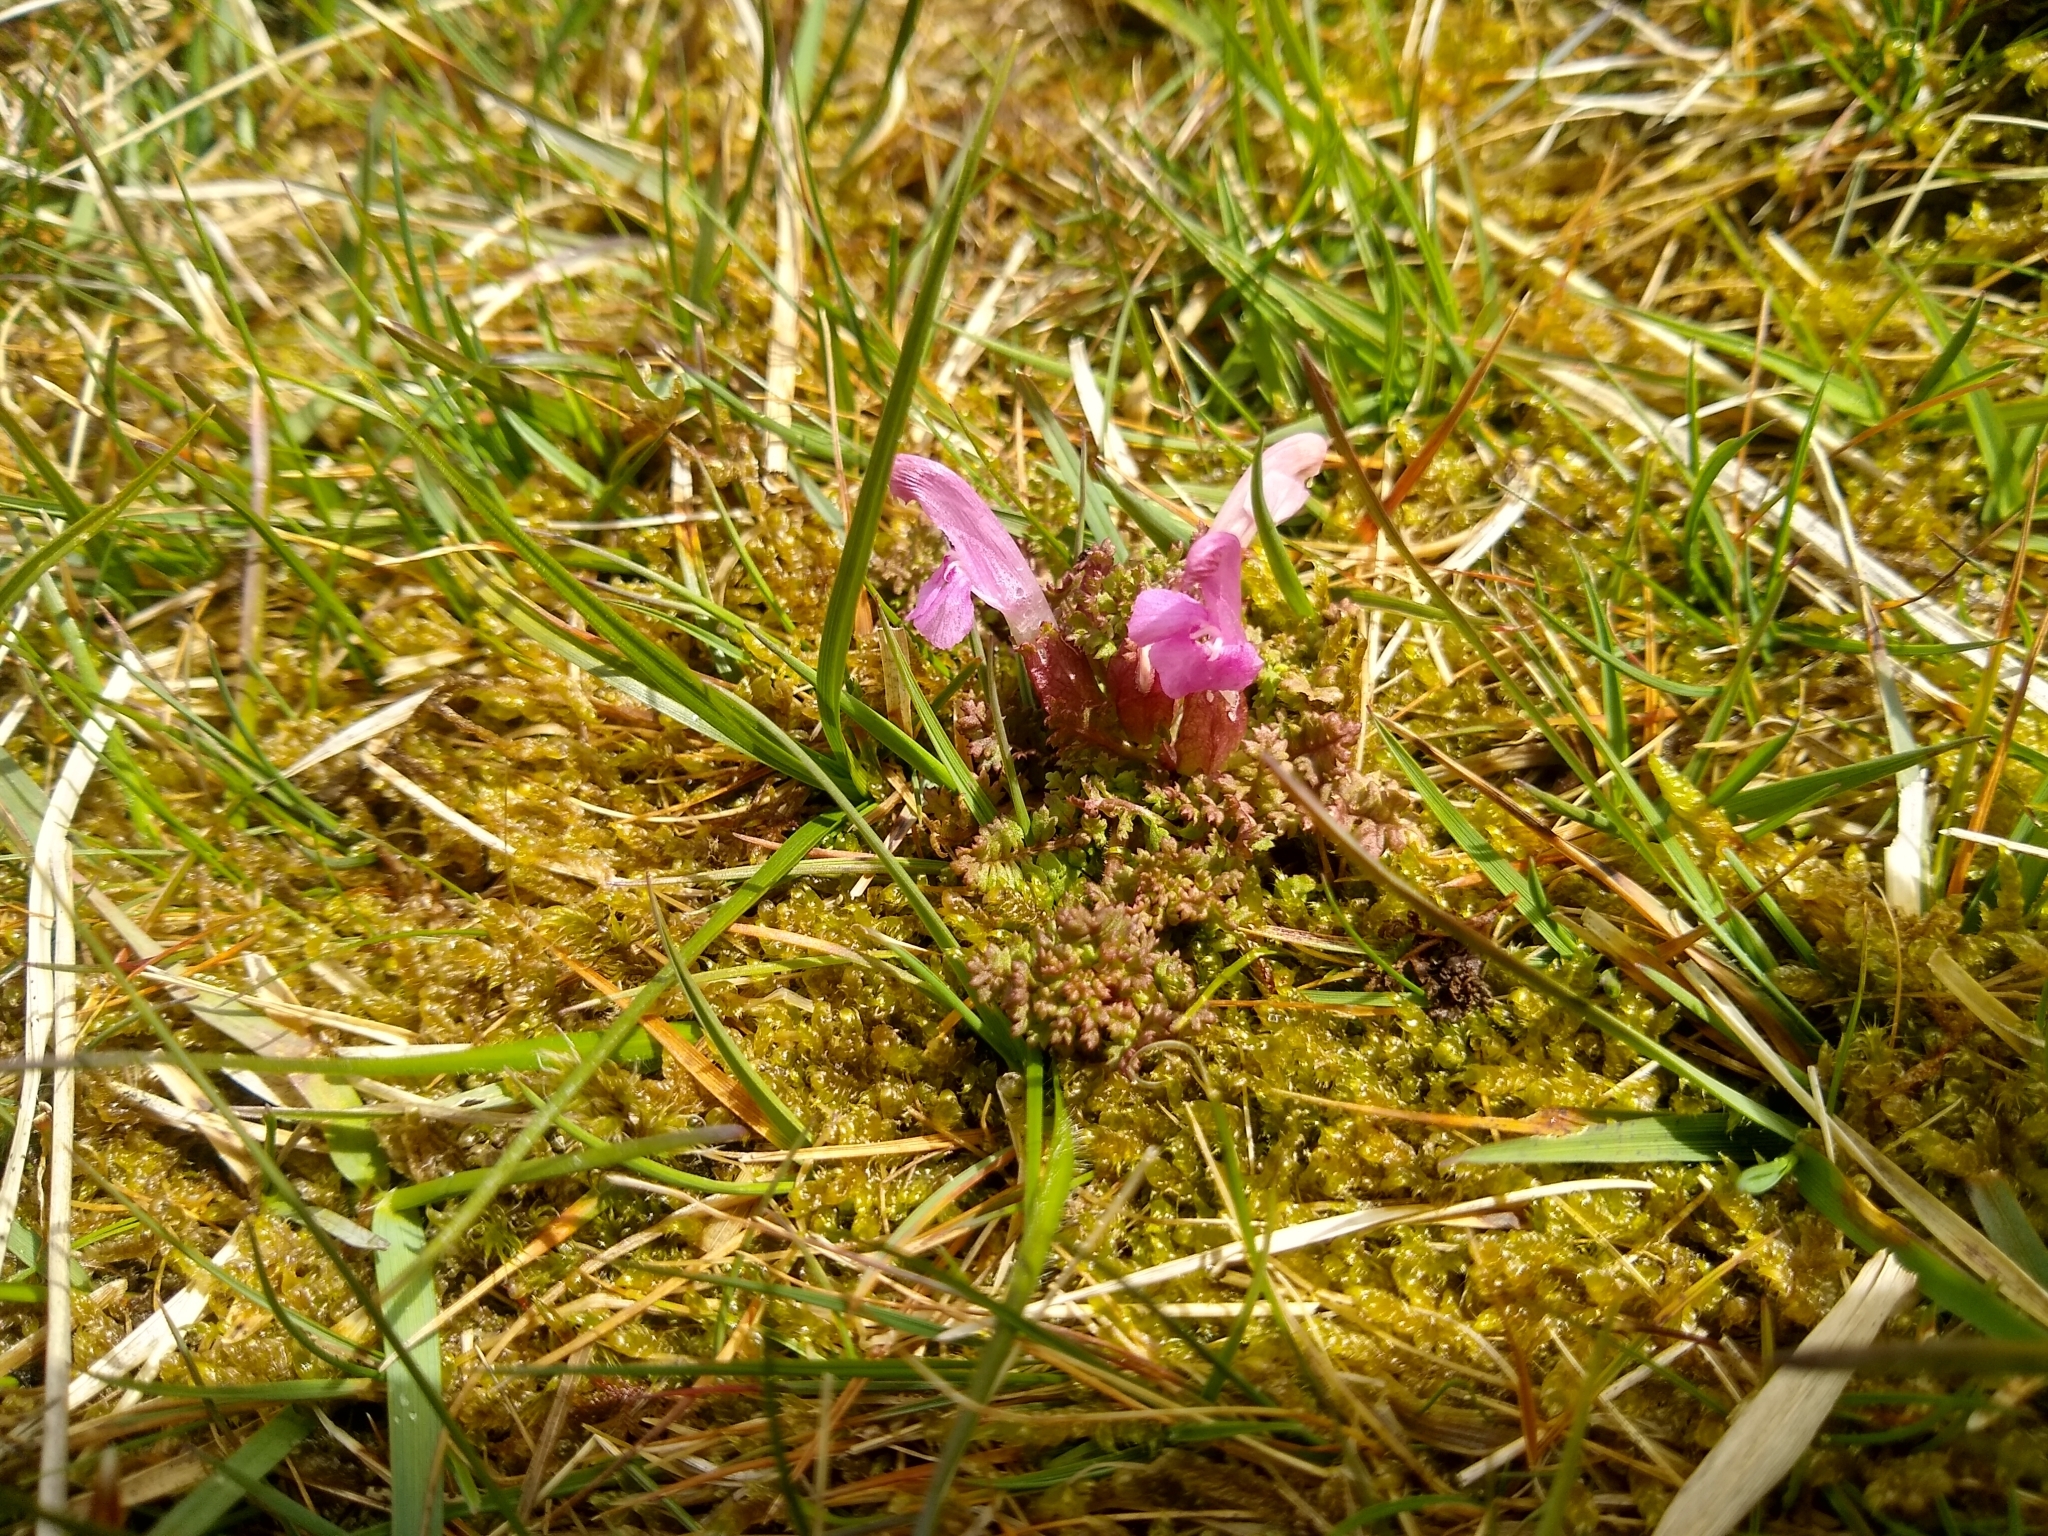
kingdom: Plantae
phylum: Tracheophyta
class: Magnoliopsida
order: Lamiales
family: Orobanchaceae
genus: Pedicularis
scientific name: Pedicularis sylvatica
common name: Lousewort
